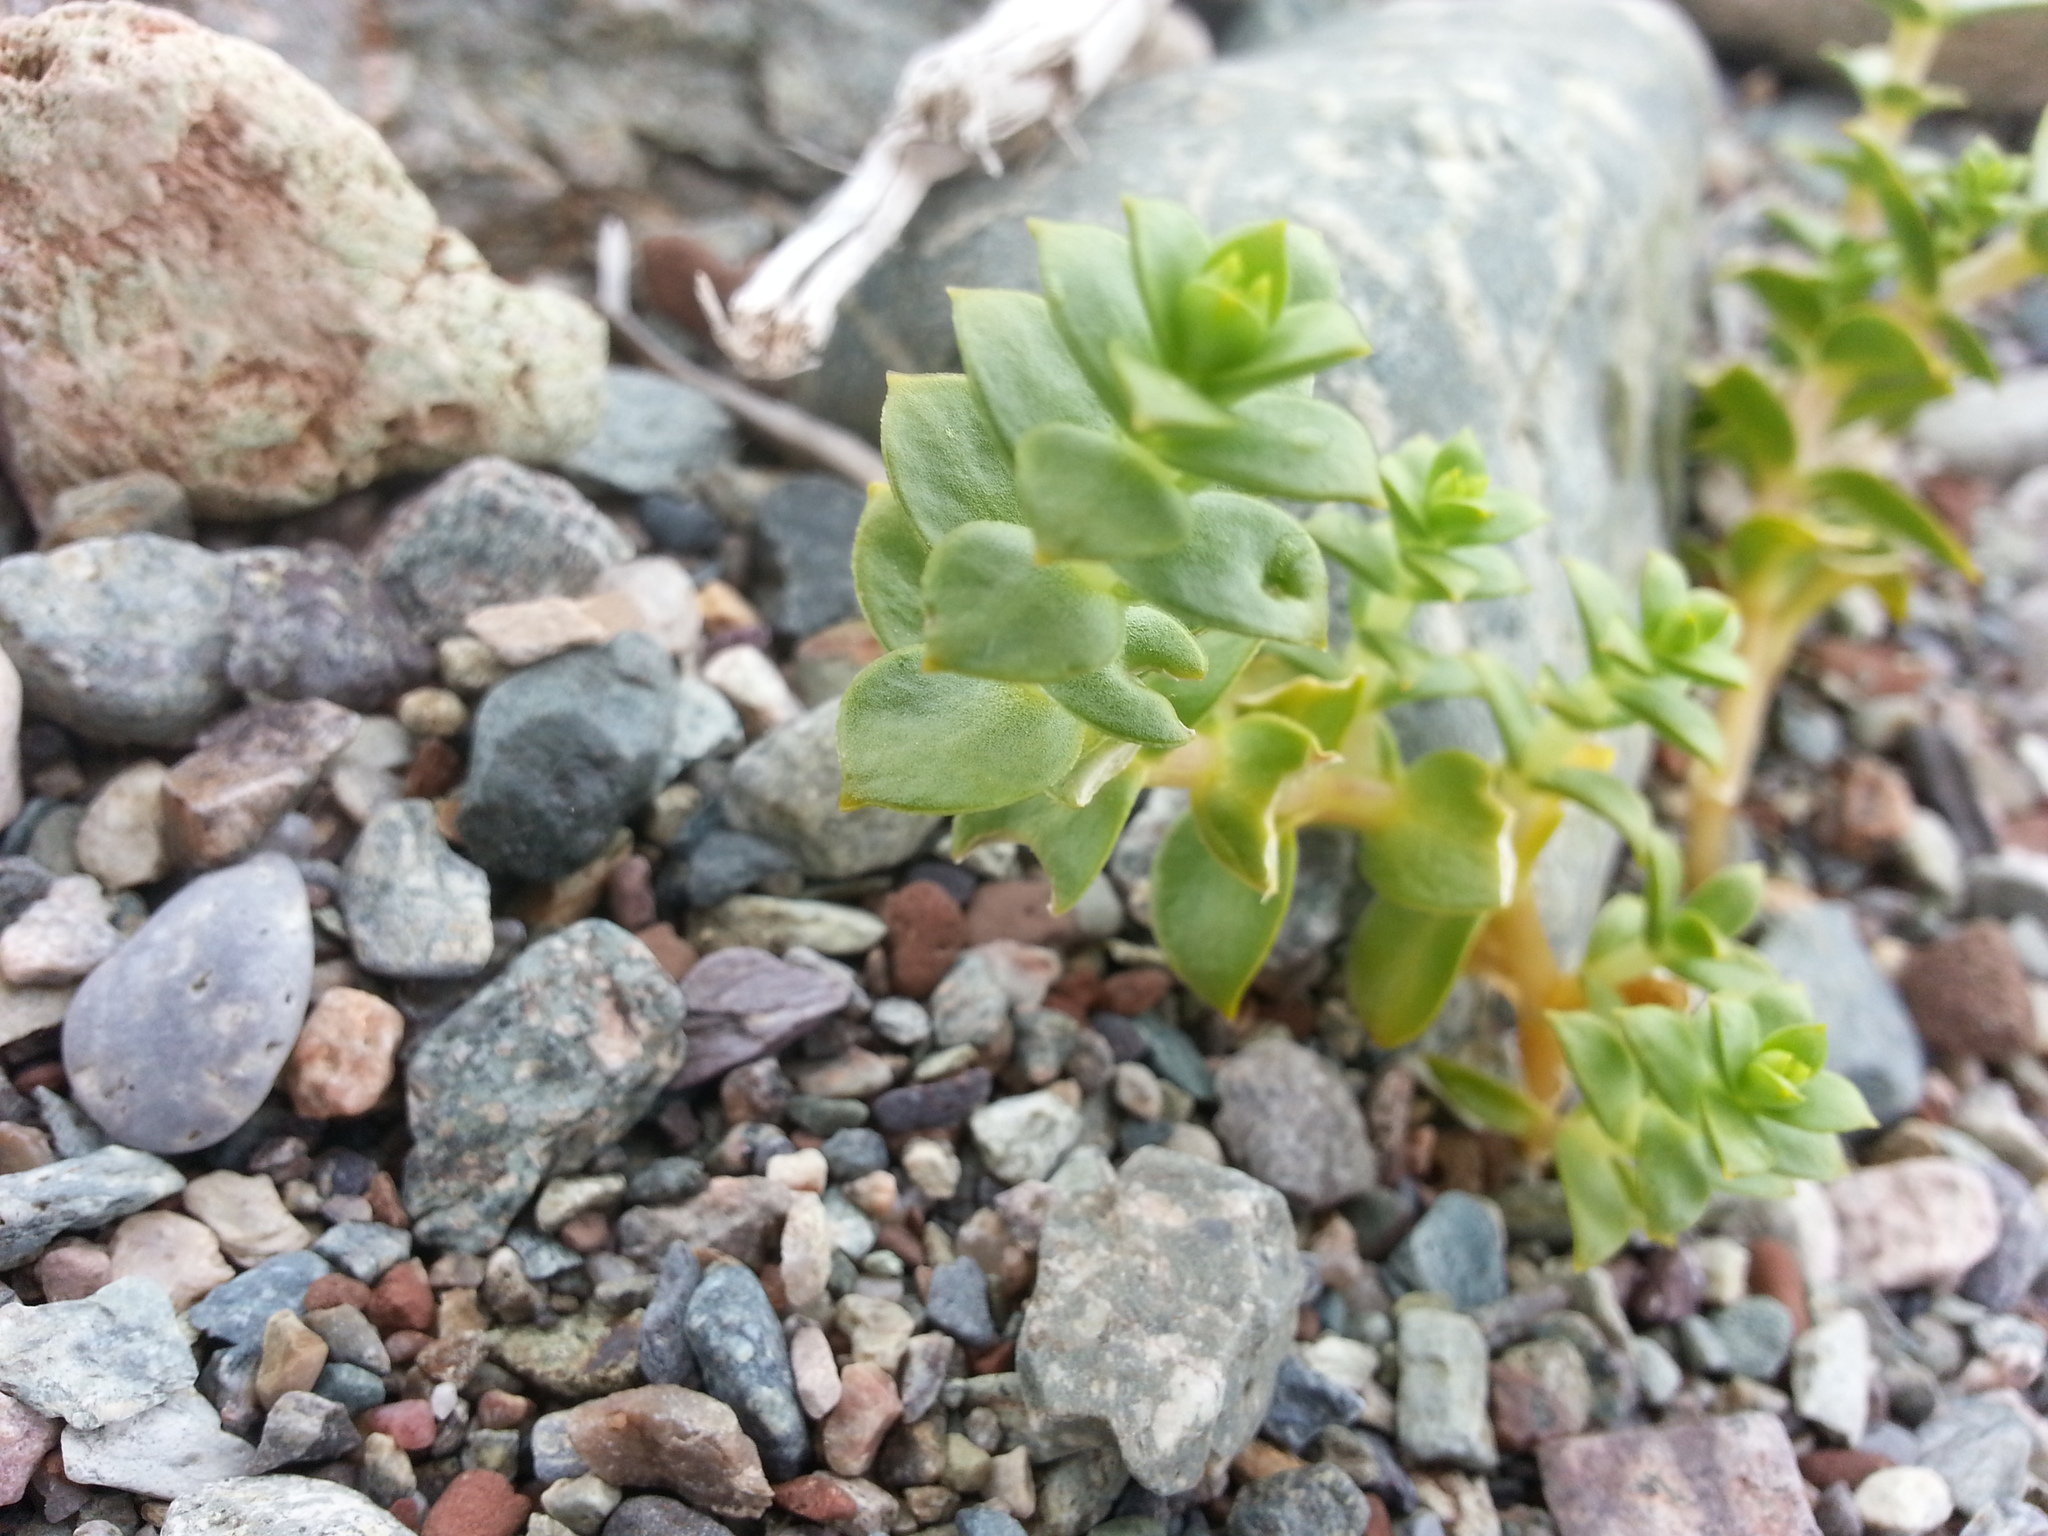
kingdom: Plantae
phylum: Tracheophyta
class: Magnoliopsida
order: Caryophyllales
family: Caryophyllaceae
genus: Honckenya
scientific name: Honckenya peploides
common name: Sea sandwort
